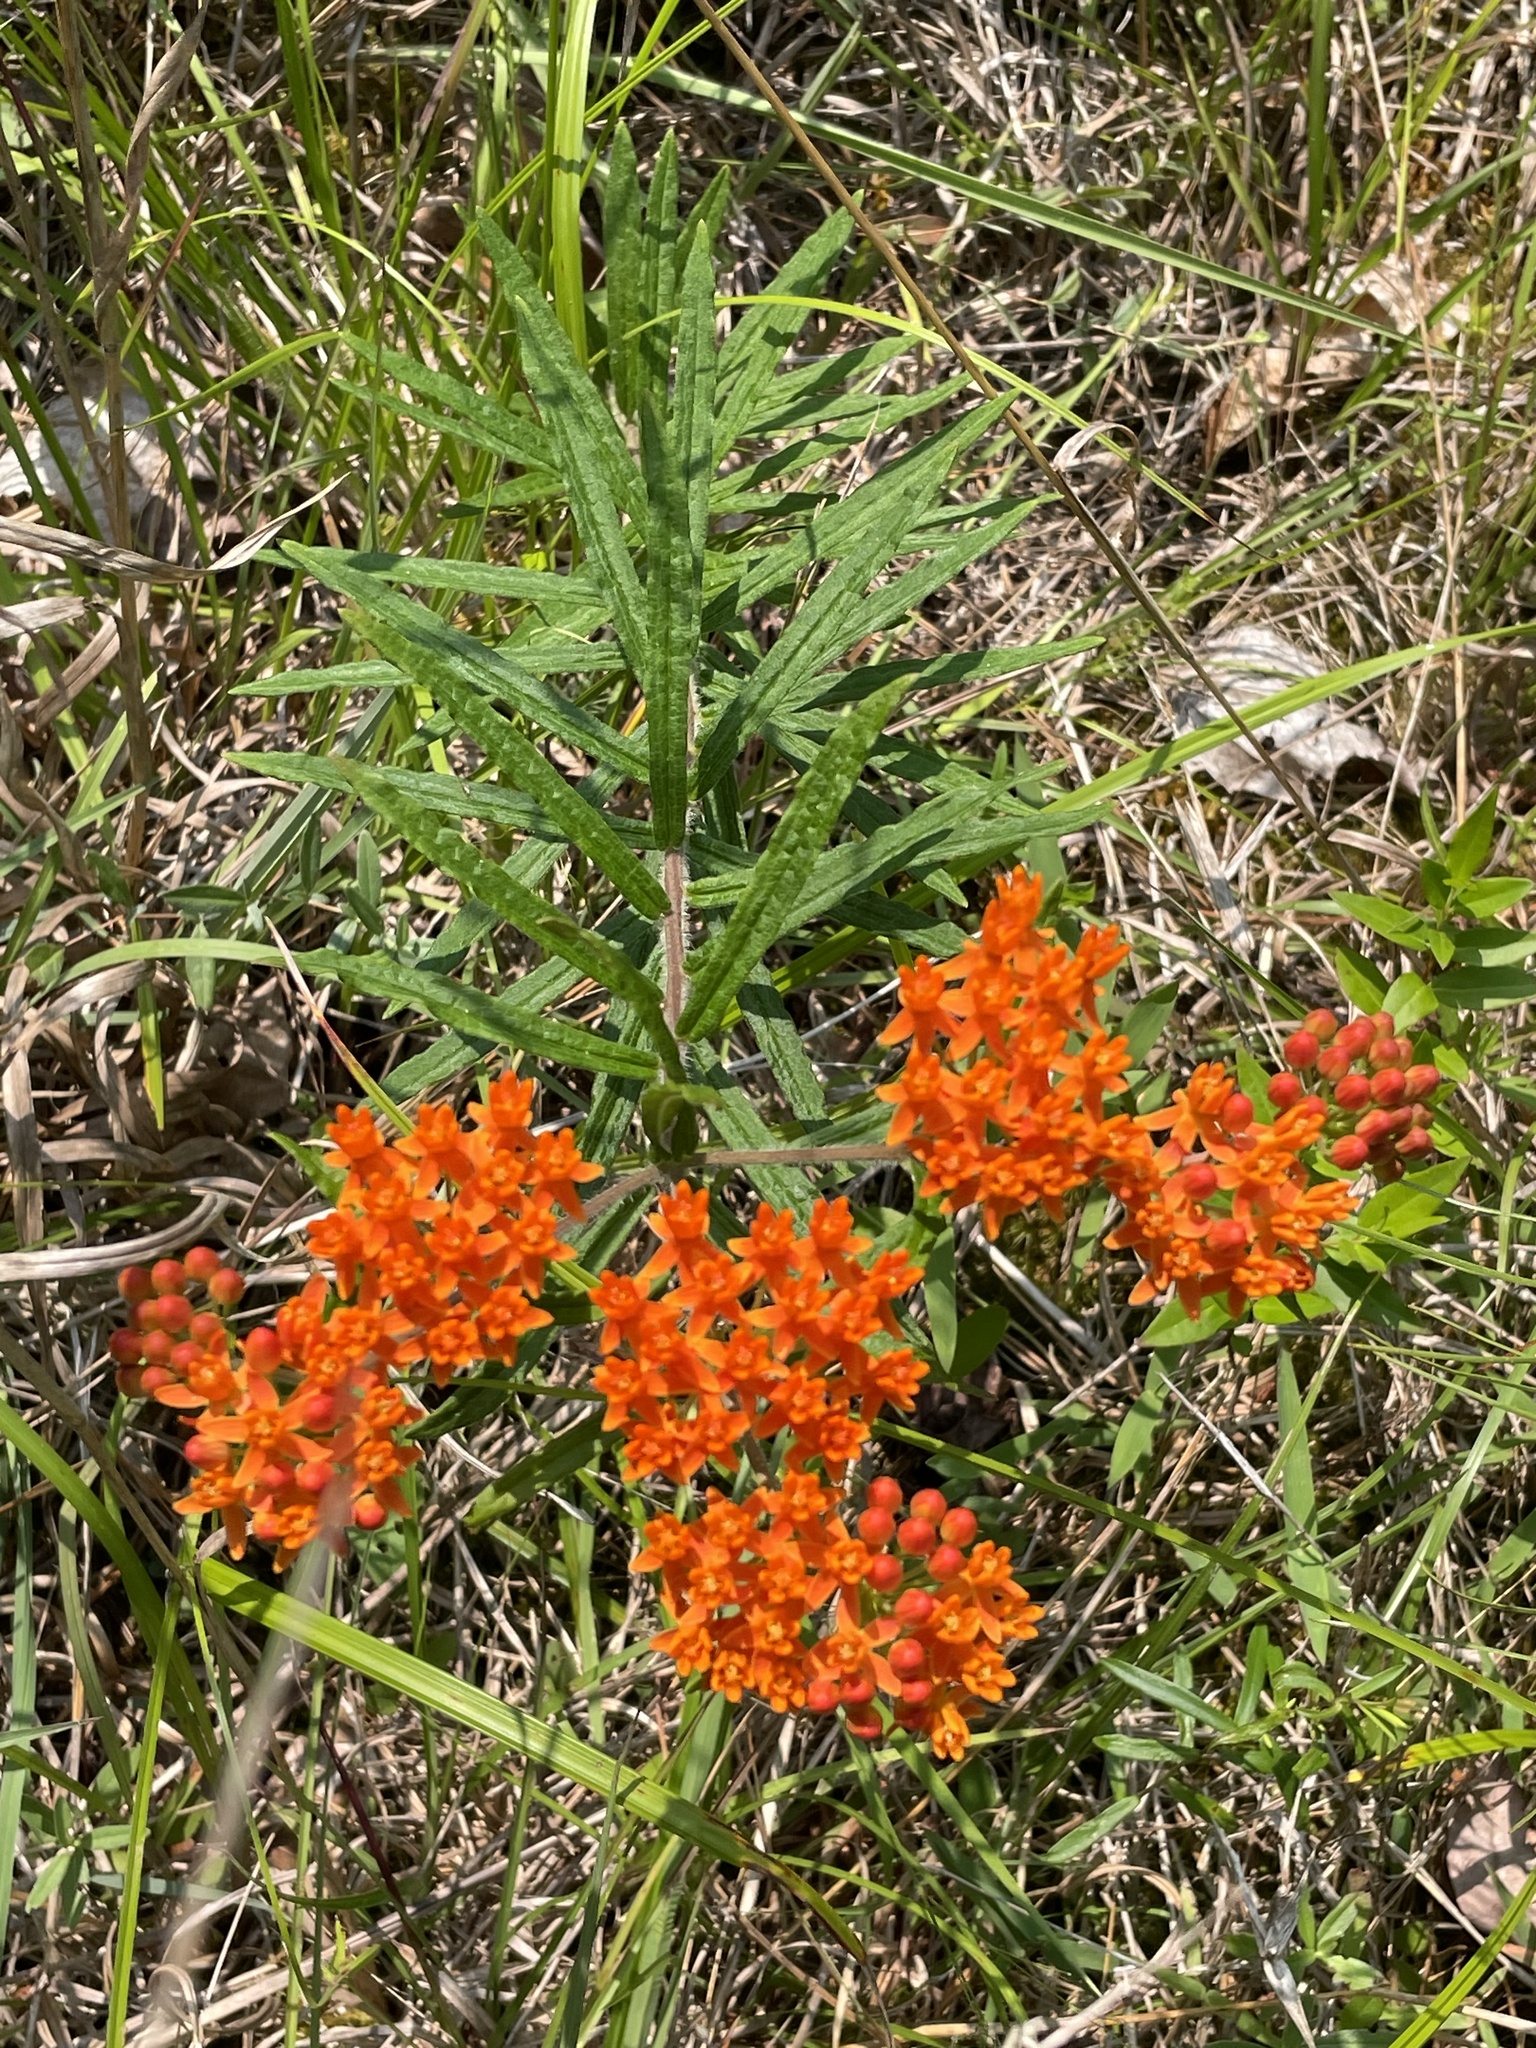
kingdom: Plantae
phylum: Tracheophyta
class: Magnoliopsida
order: Gentianales
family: Apocynaceae
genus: Asclepias
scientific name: Asclepias tuberosa
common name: Butterfly milkweed
